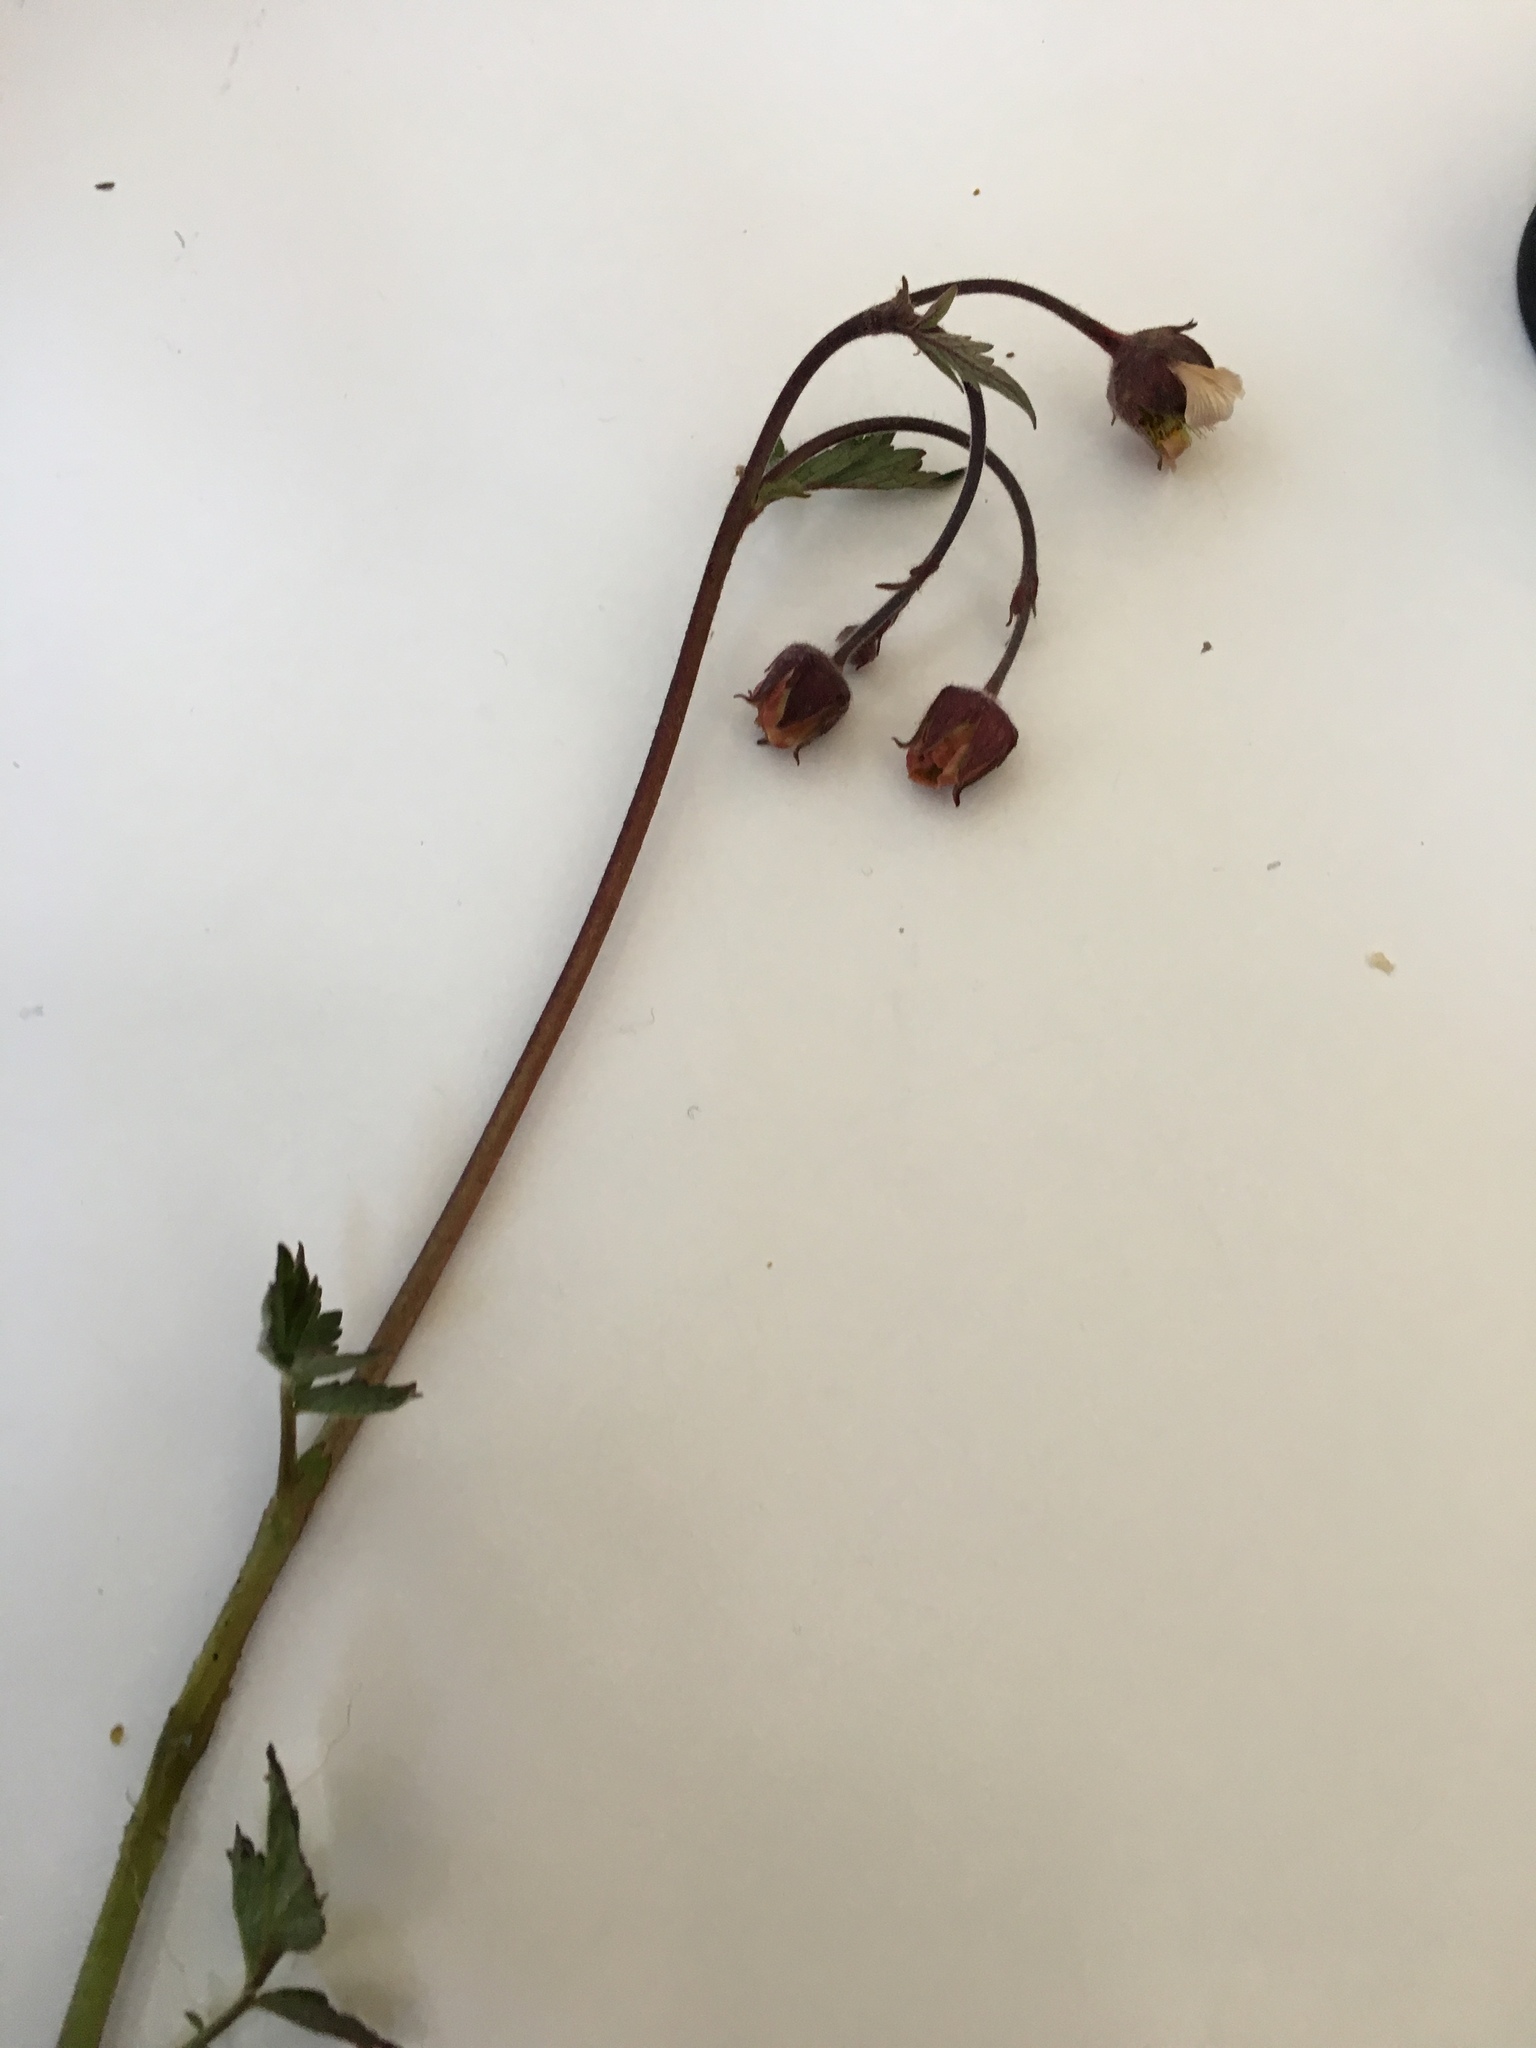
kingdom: Plantae
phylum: Tracheophyta
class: Magnoliopsida
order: Rosales
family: Rosaceae
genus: Geum
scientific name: Geum rivale
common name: Water avens
